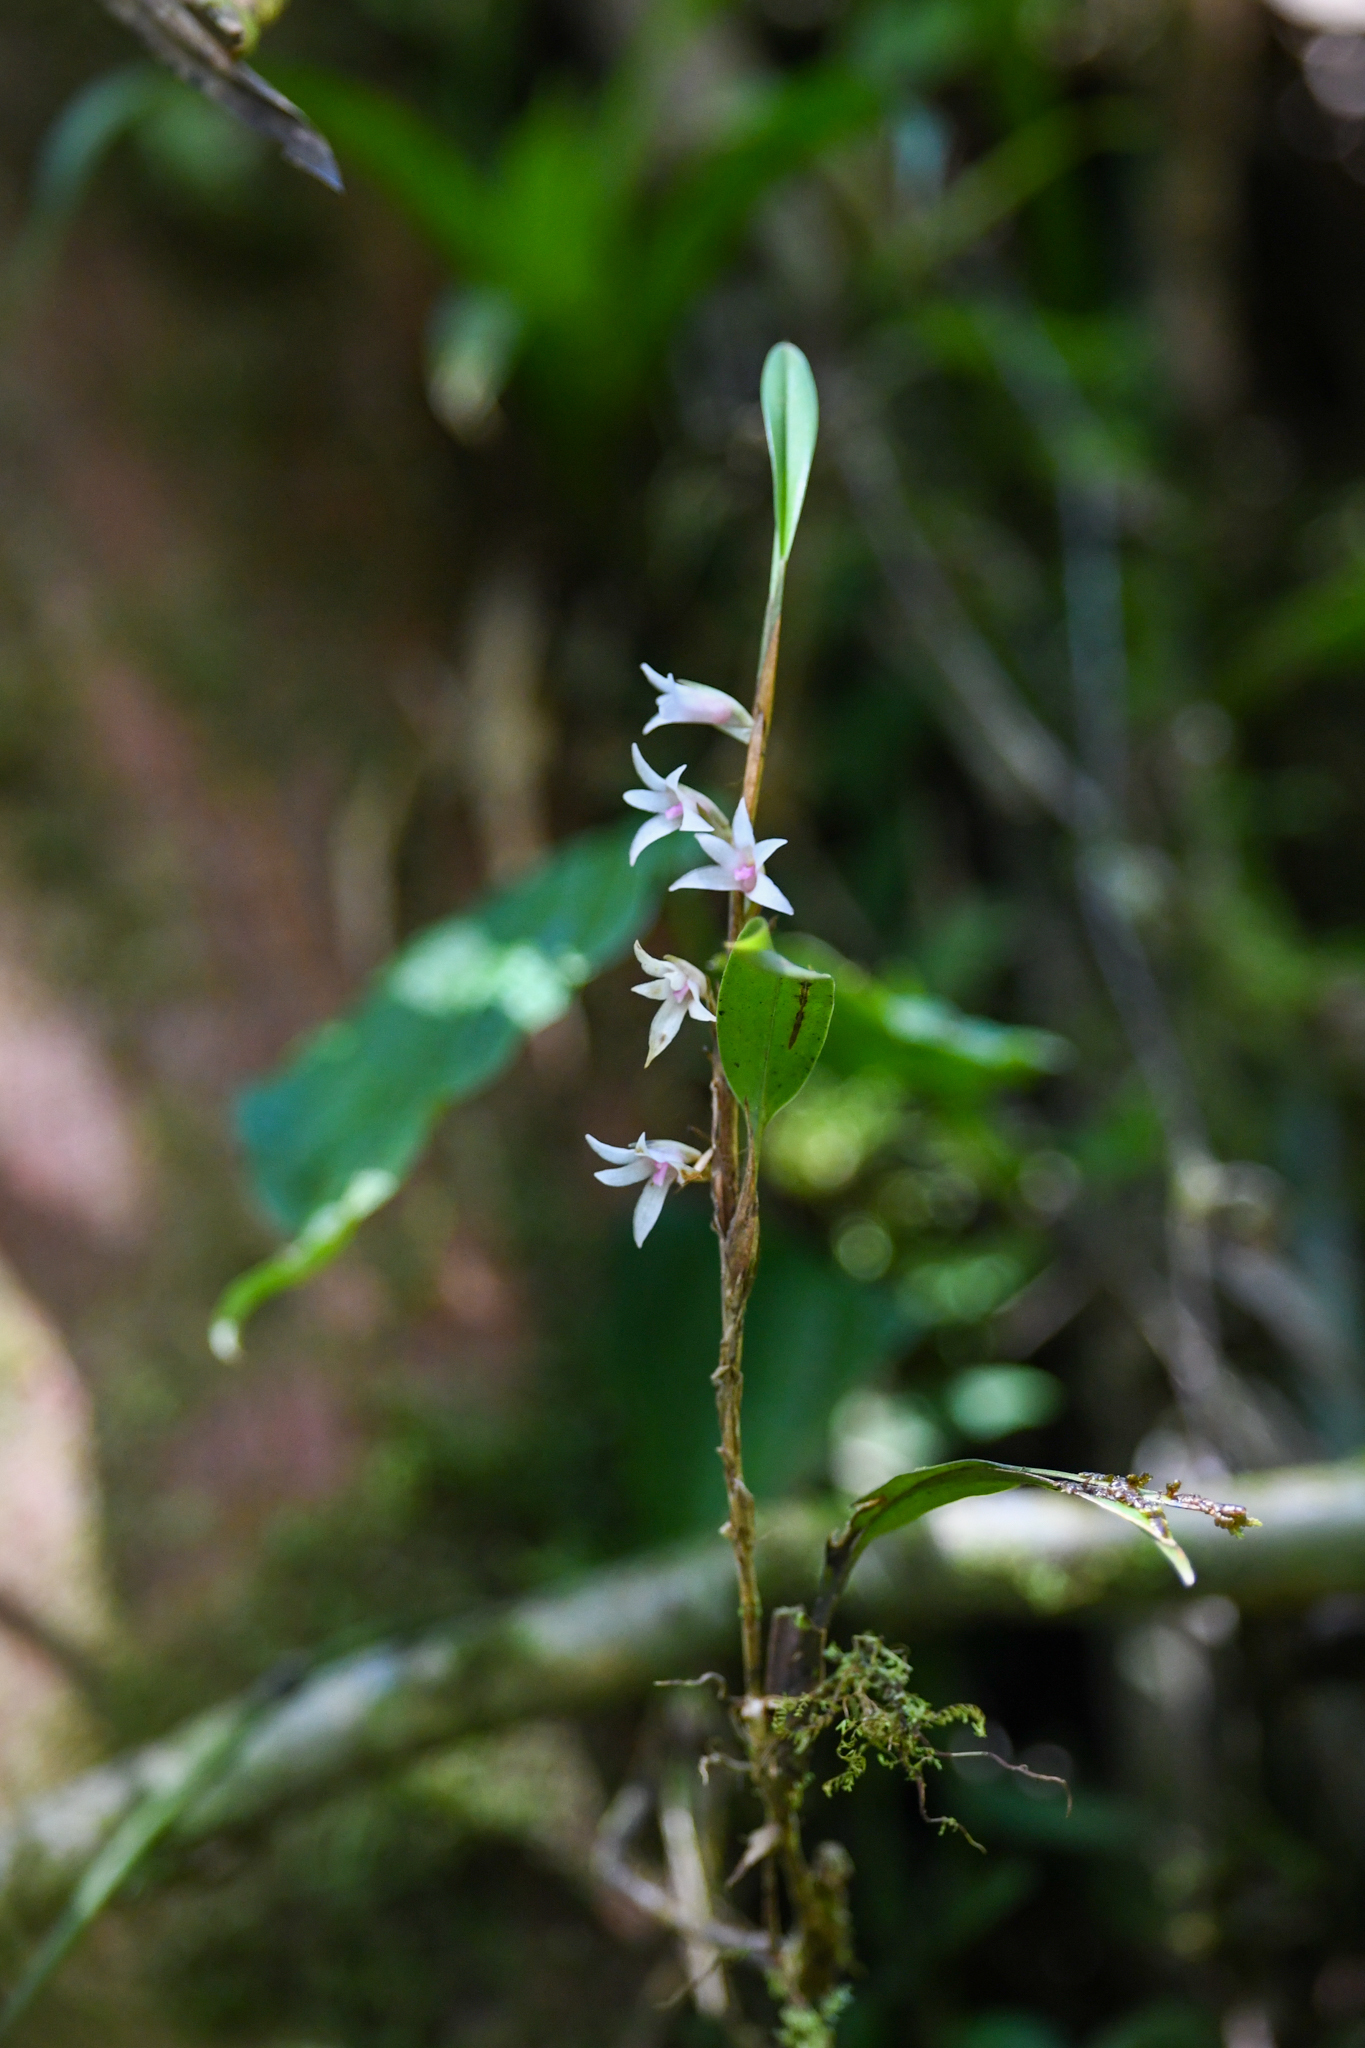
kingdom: Plantae
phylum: Tracheophyta
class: Liliopsida
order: Asparagales
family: Orchidaceae
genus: Maxillaria
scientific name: Maxillaria schlechteriana
